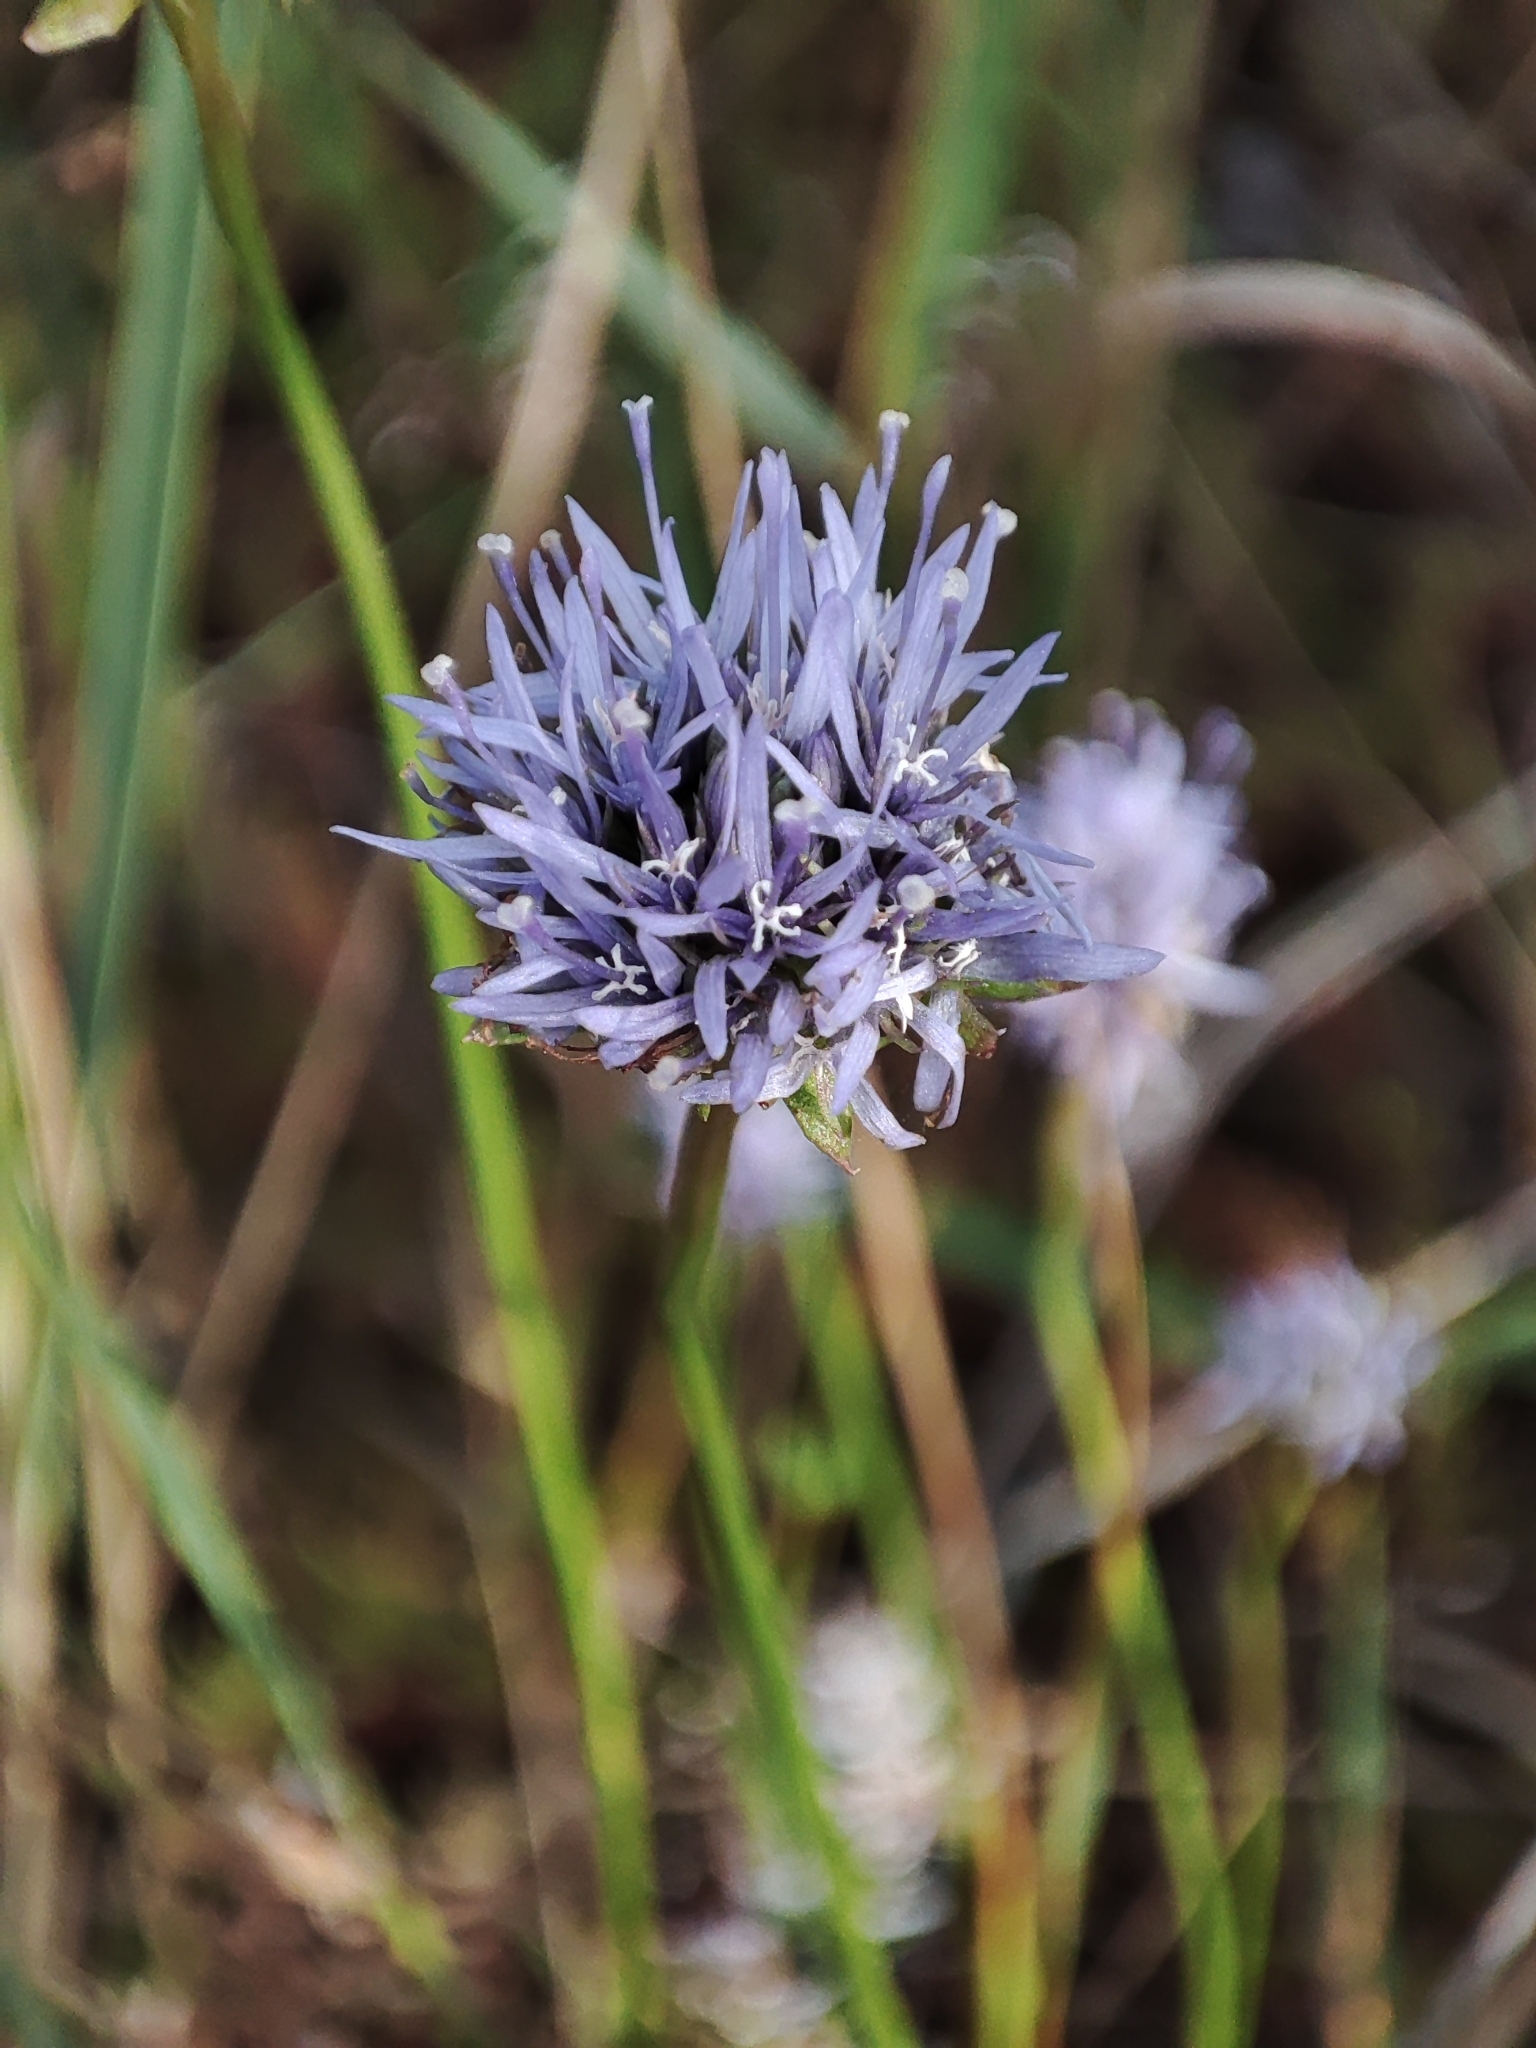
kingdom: Plantae
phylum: Tracheophyta
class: Magnoliopsida
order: Asterales
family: Campanulaceae
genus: Jasione
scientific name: Jasione montana
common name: Sheep's-bit
